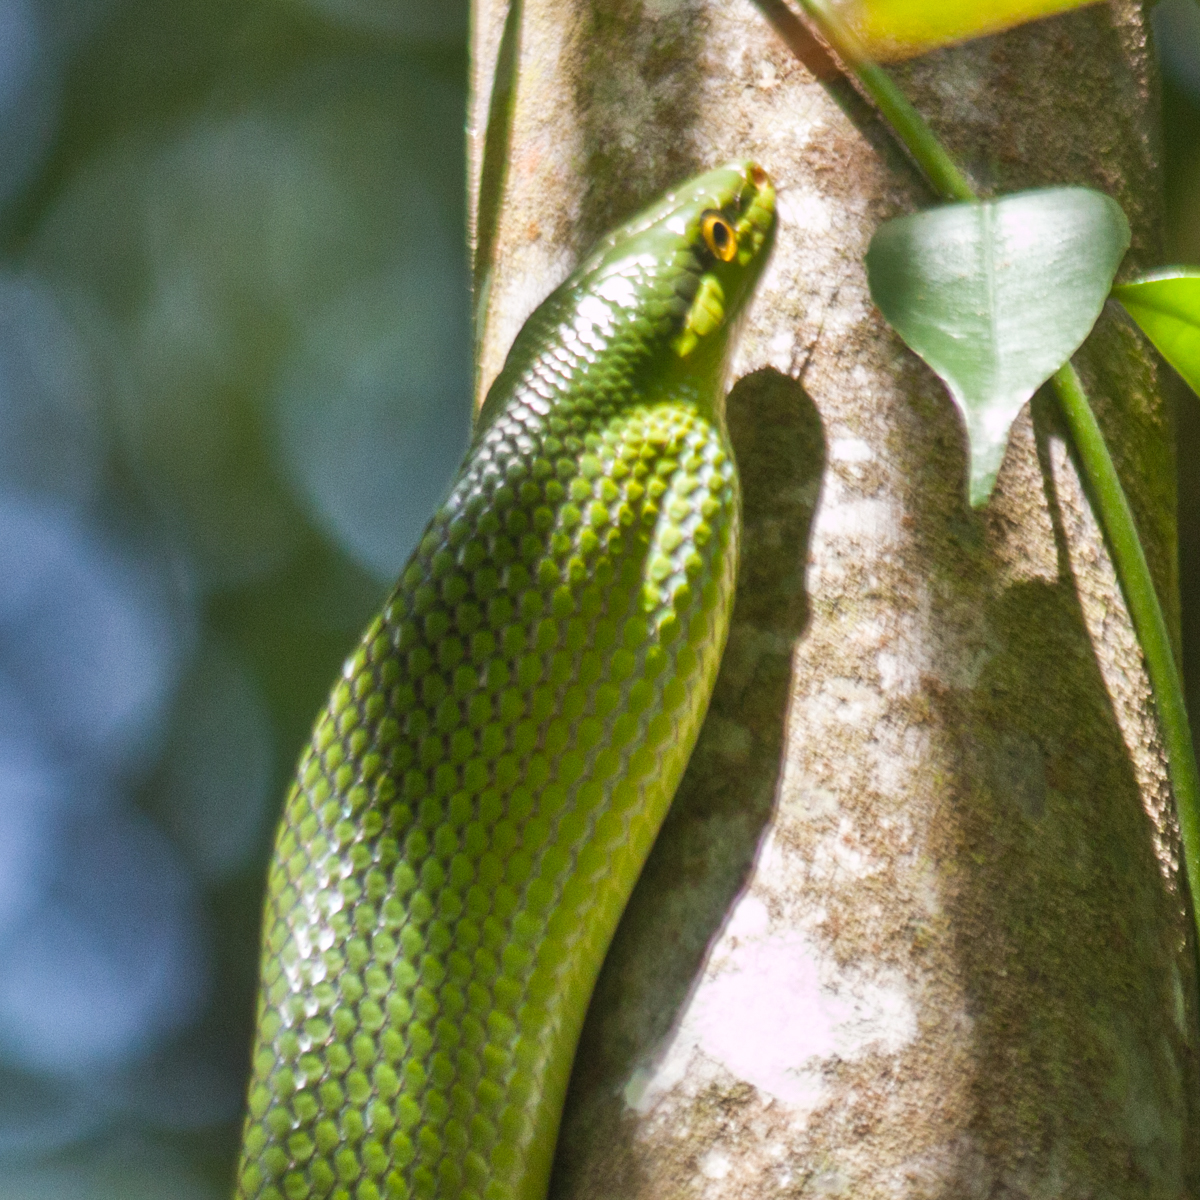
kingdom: Animalia
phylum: Chordata
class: Squamata
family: Colubridae
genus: Gonyosoma
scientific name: Gonyosoma oxycephalum
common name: Red-tailed racer
